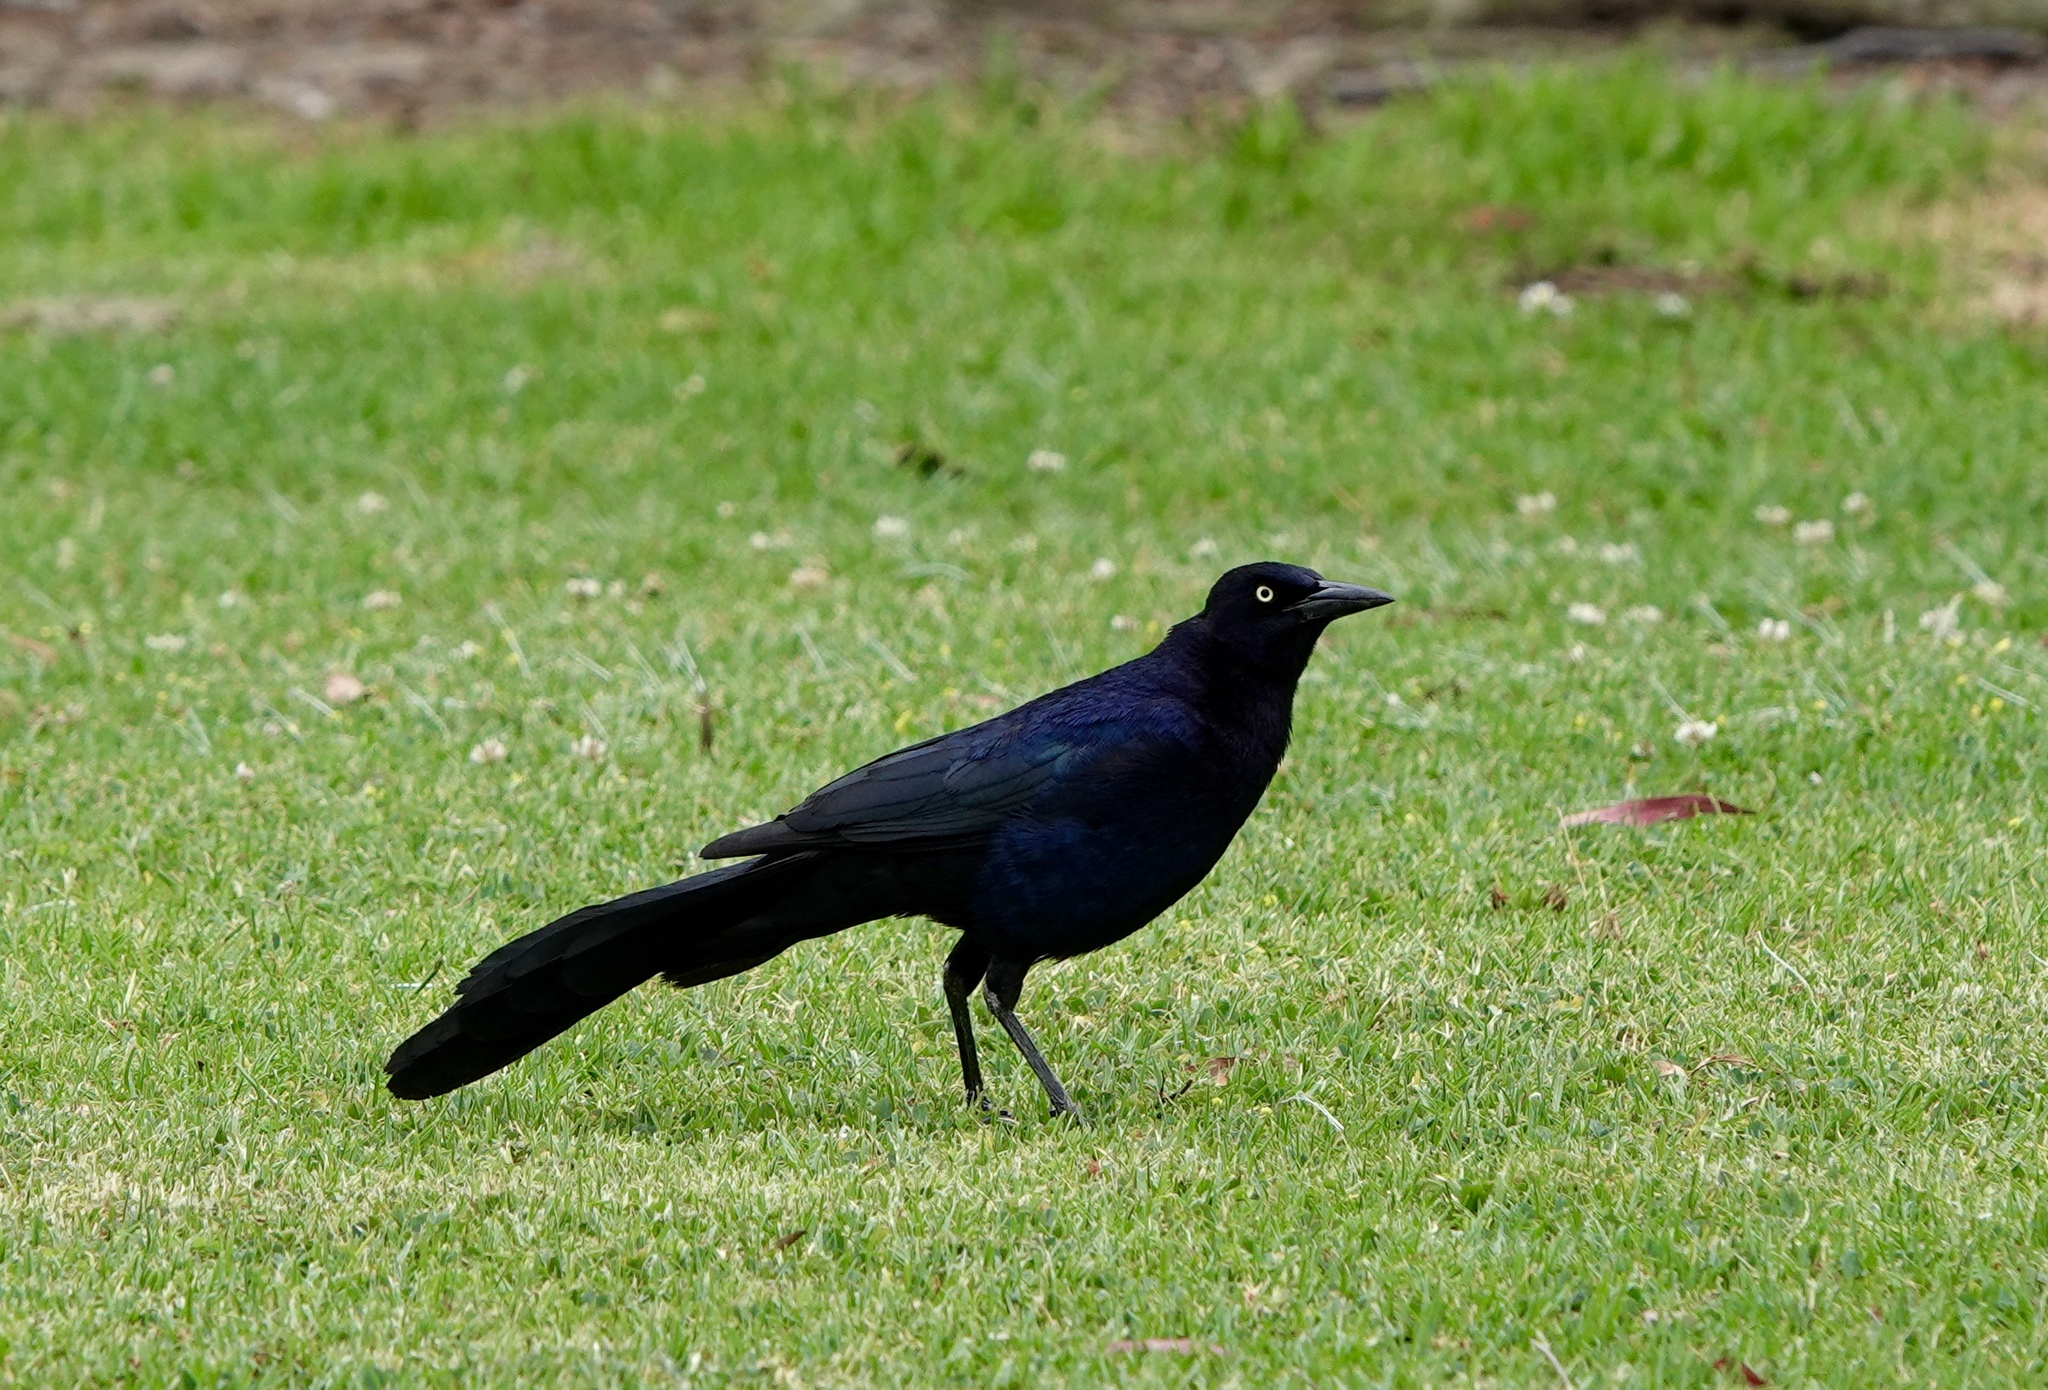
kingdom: Animalia
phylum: Chordata
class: Aves
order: Passeriformes
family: Icteridae
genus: Quiscalus
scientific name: Quiscalus mexicanus
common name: Great-tailed grackle
